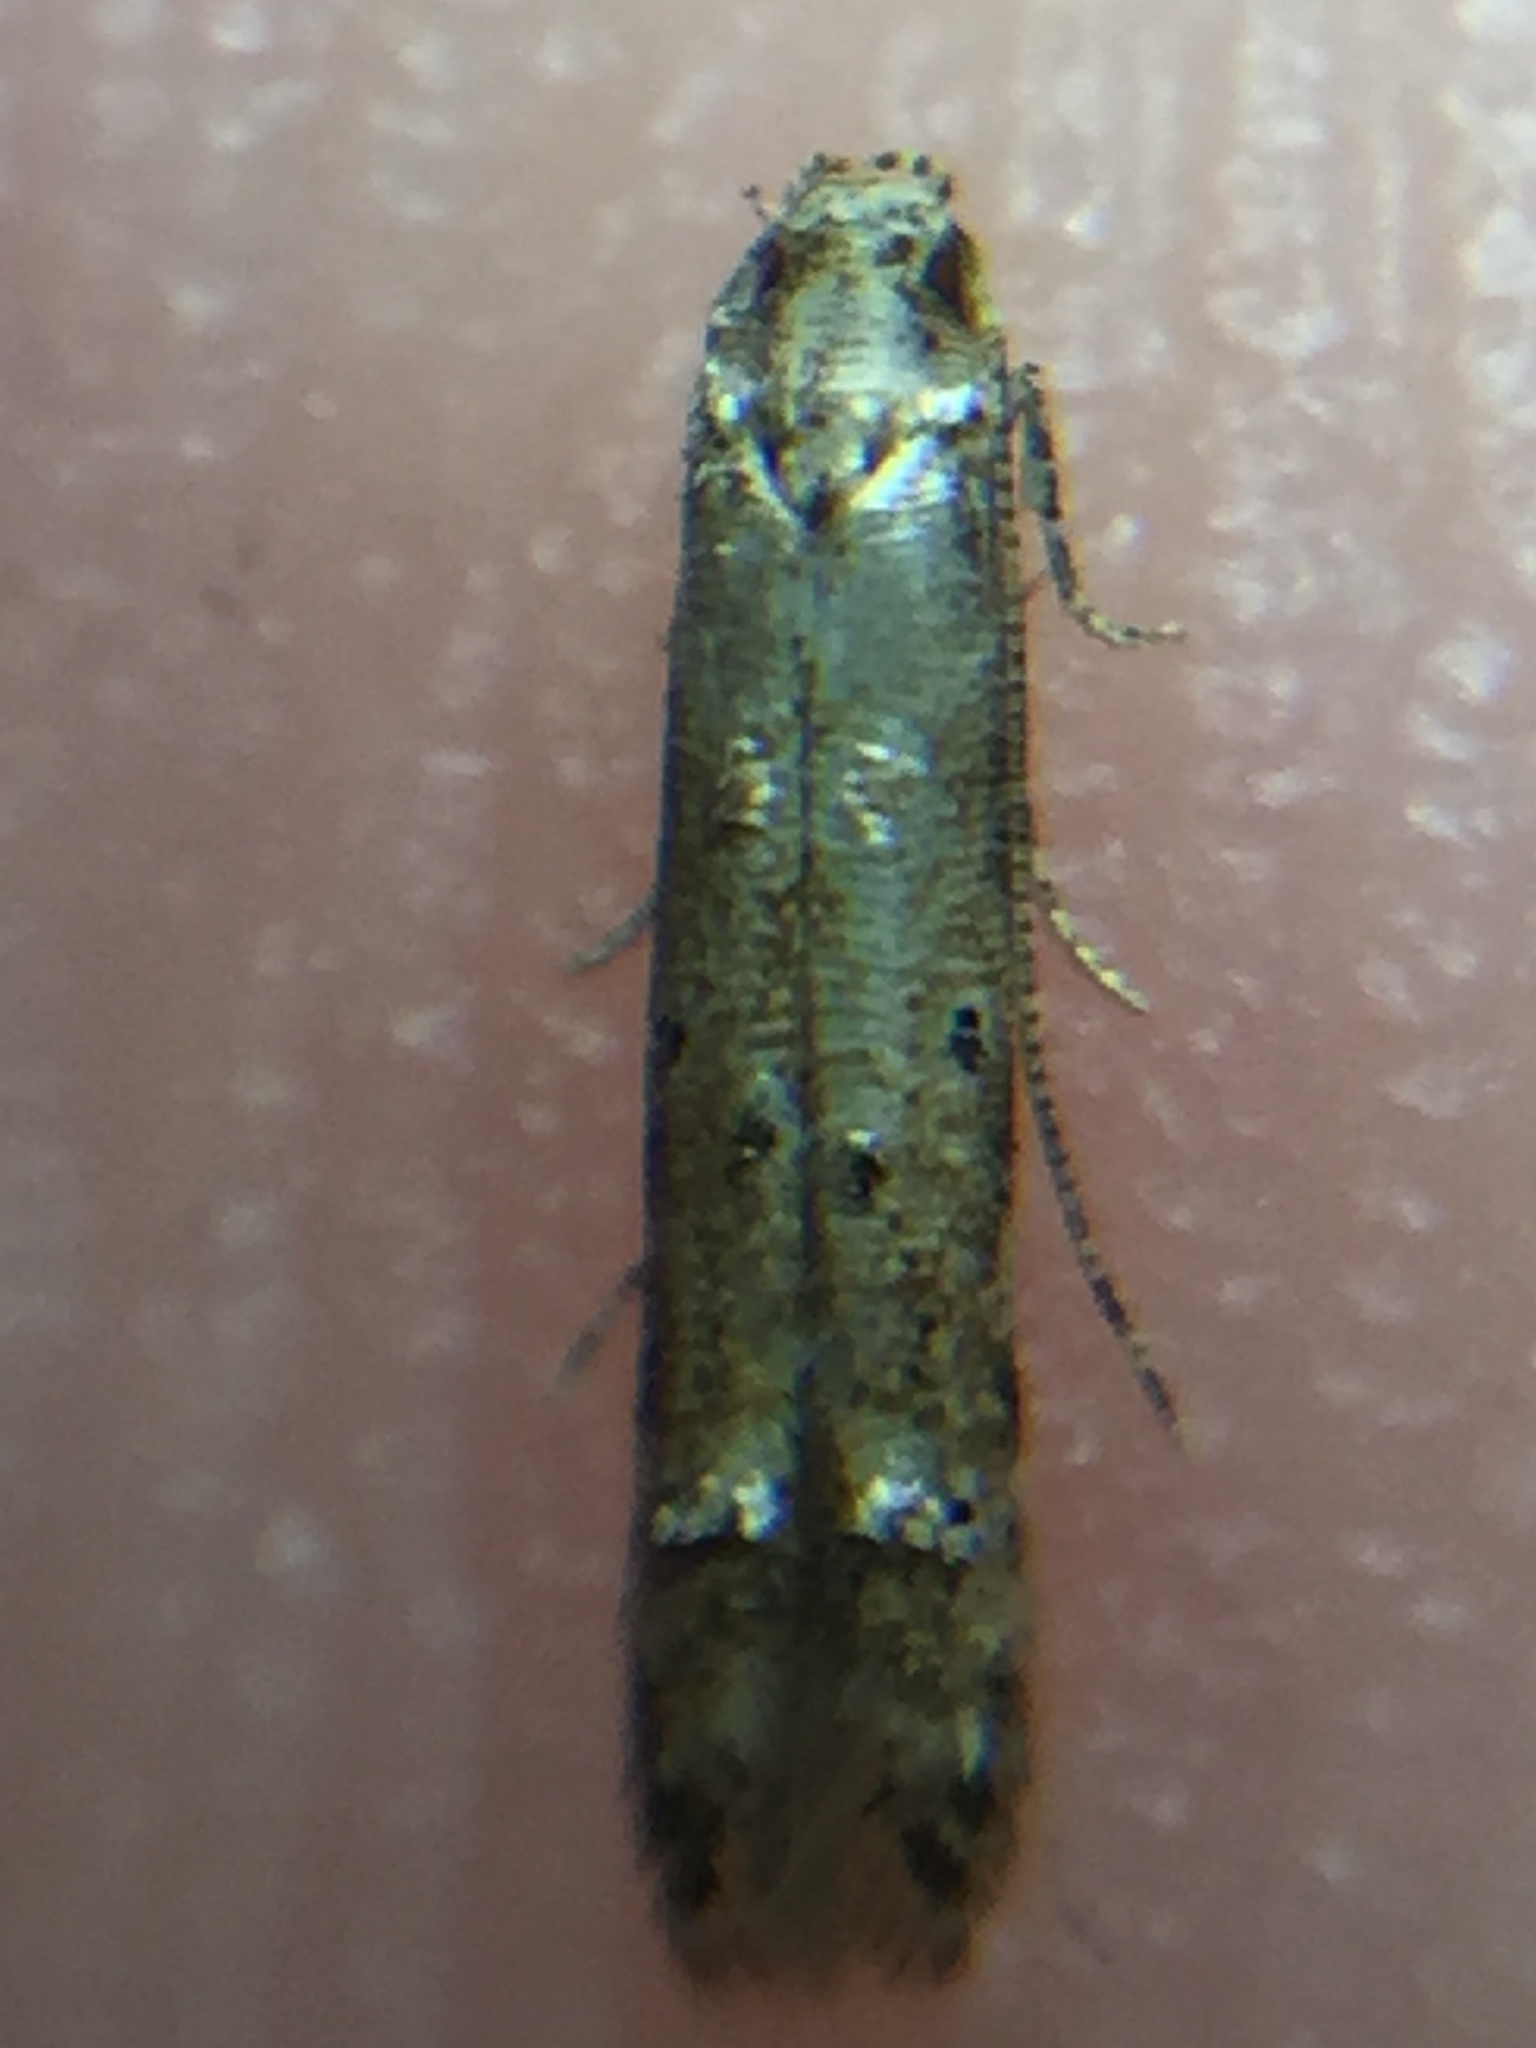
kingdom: Animalia
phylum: Arthropoda
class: Insecta
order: Lepidoptera
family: Elachistidae
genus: Microcolona
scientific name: Microcolona limodes
